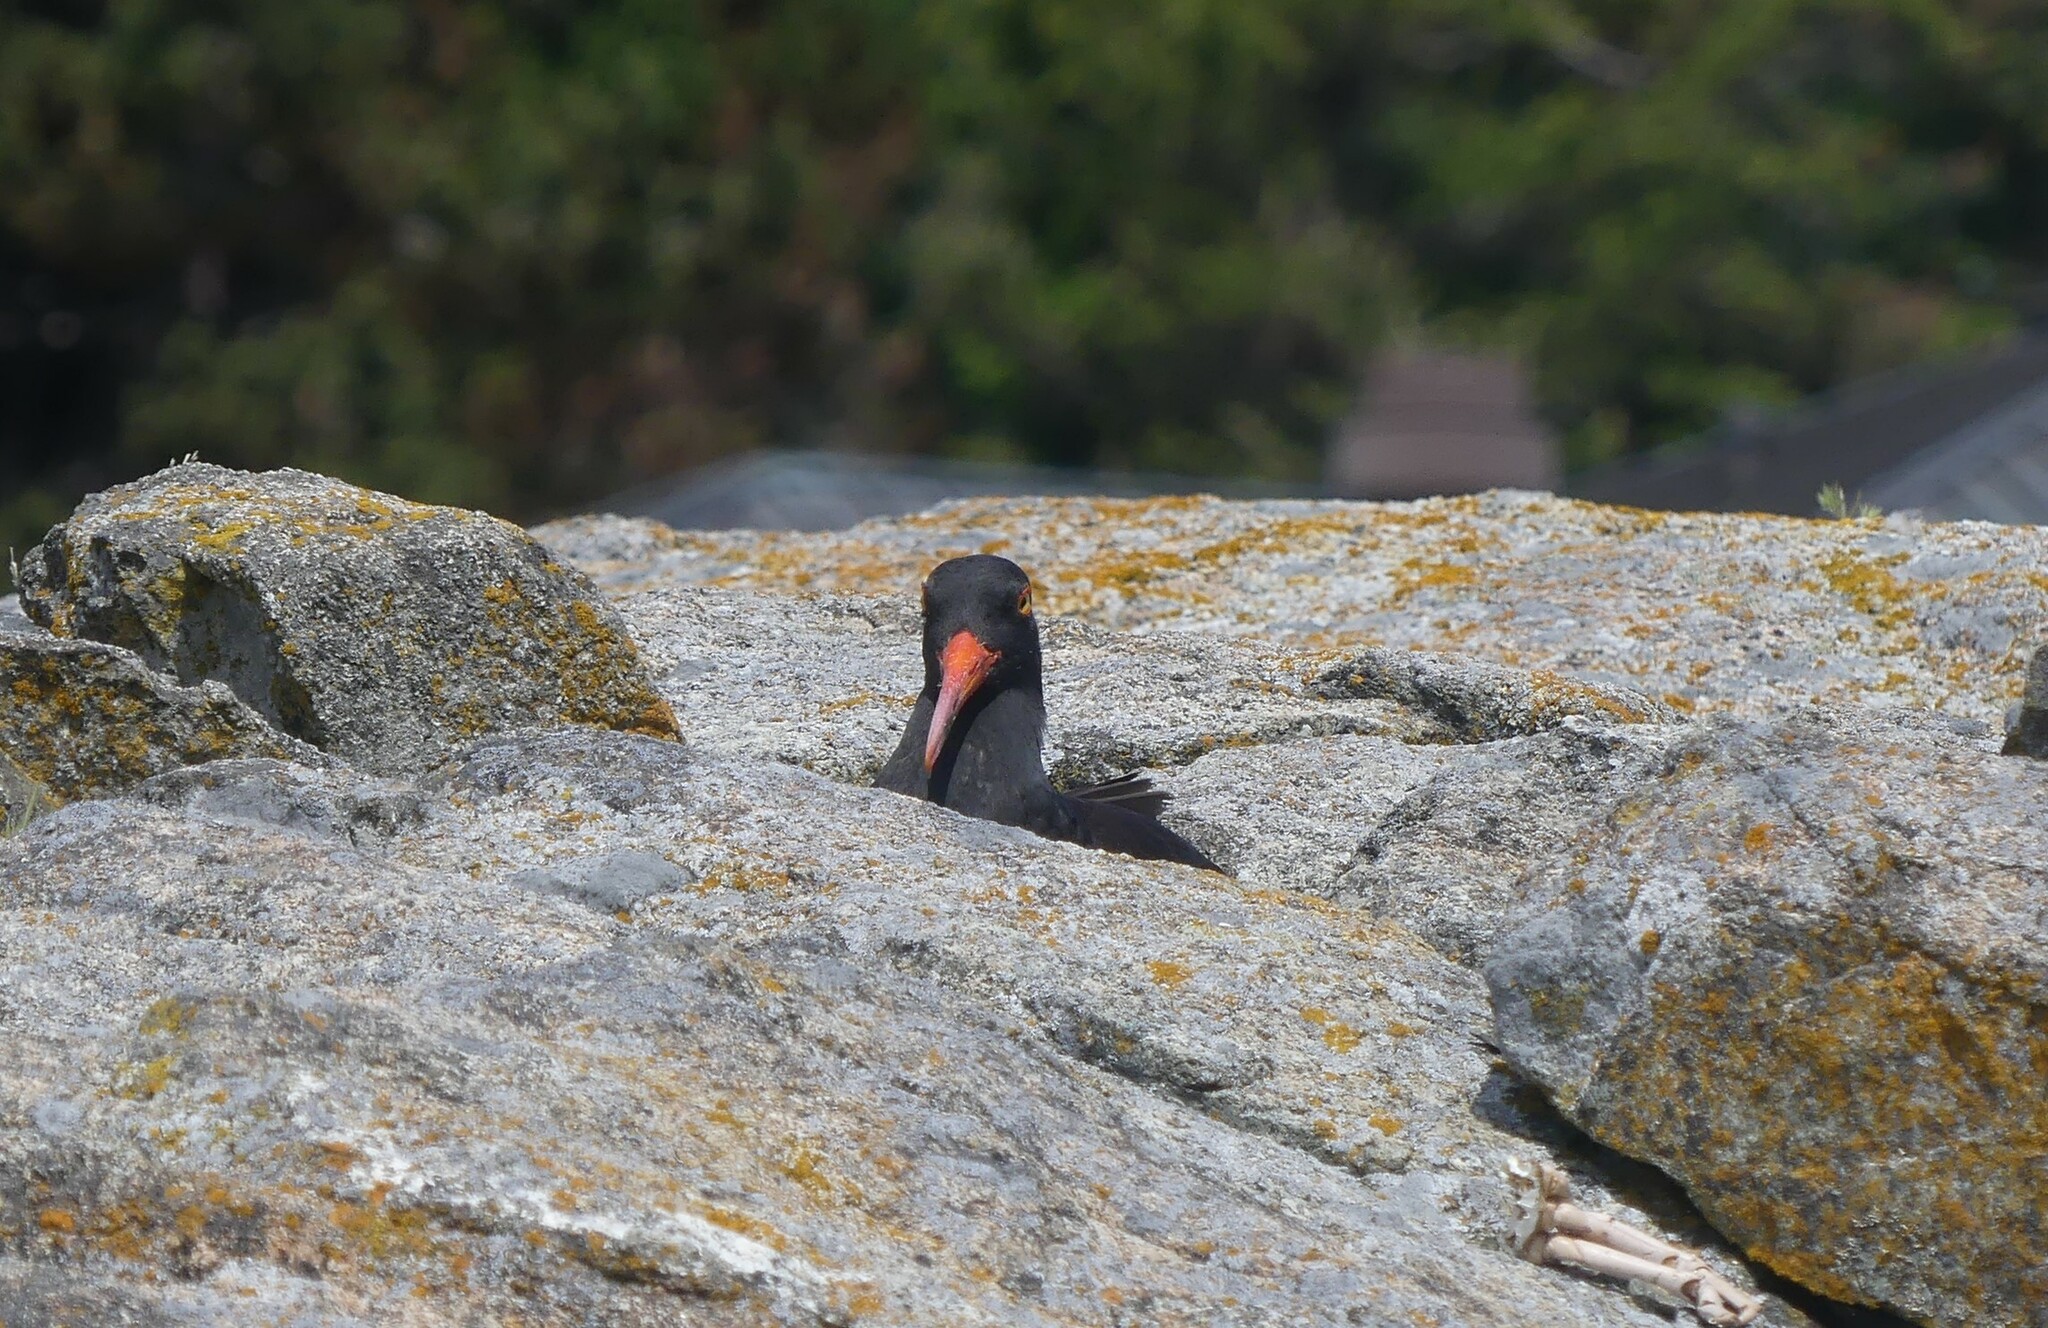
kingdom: Animalia
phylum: Chordata
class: Aves
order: Charadriiformes
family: Haematopodidae
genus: Haematopus
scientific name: Haematopus bachmani
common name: Black oystercatcher
